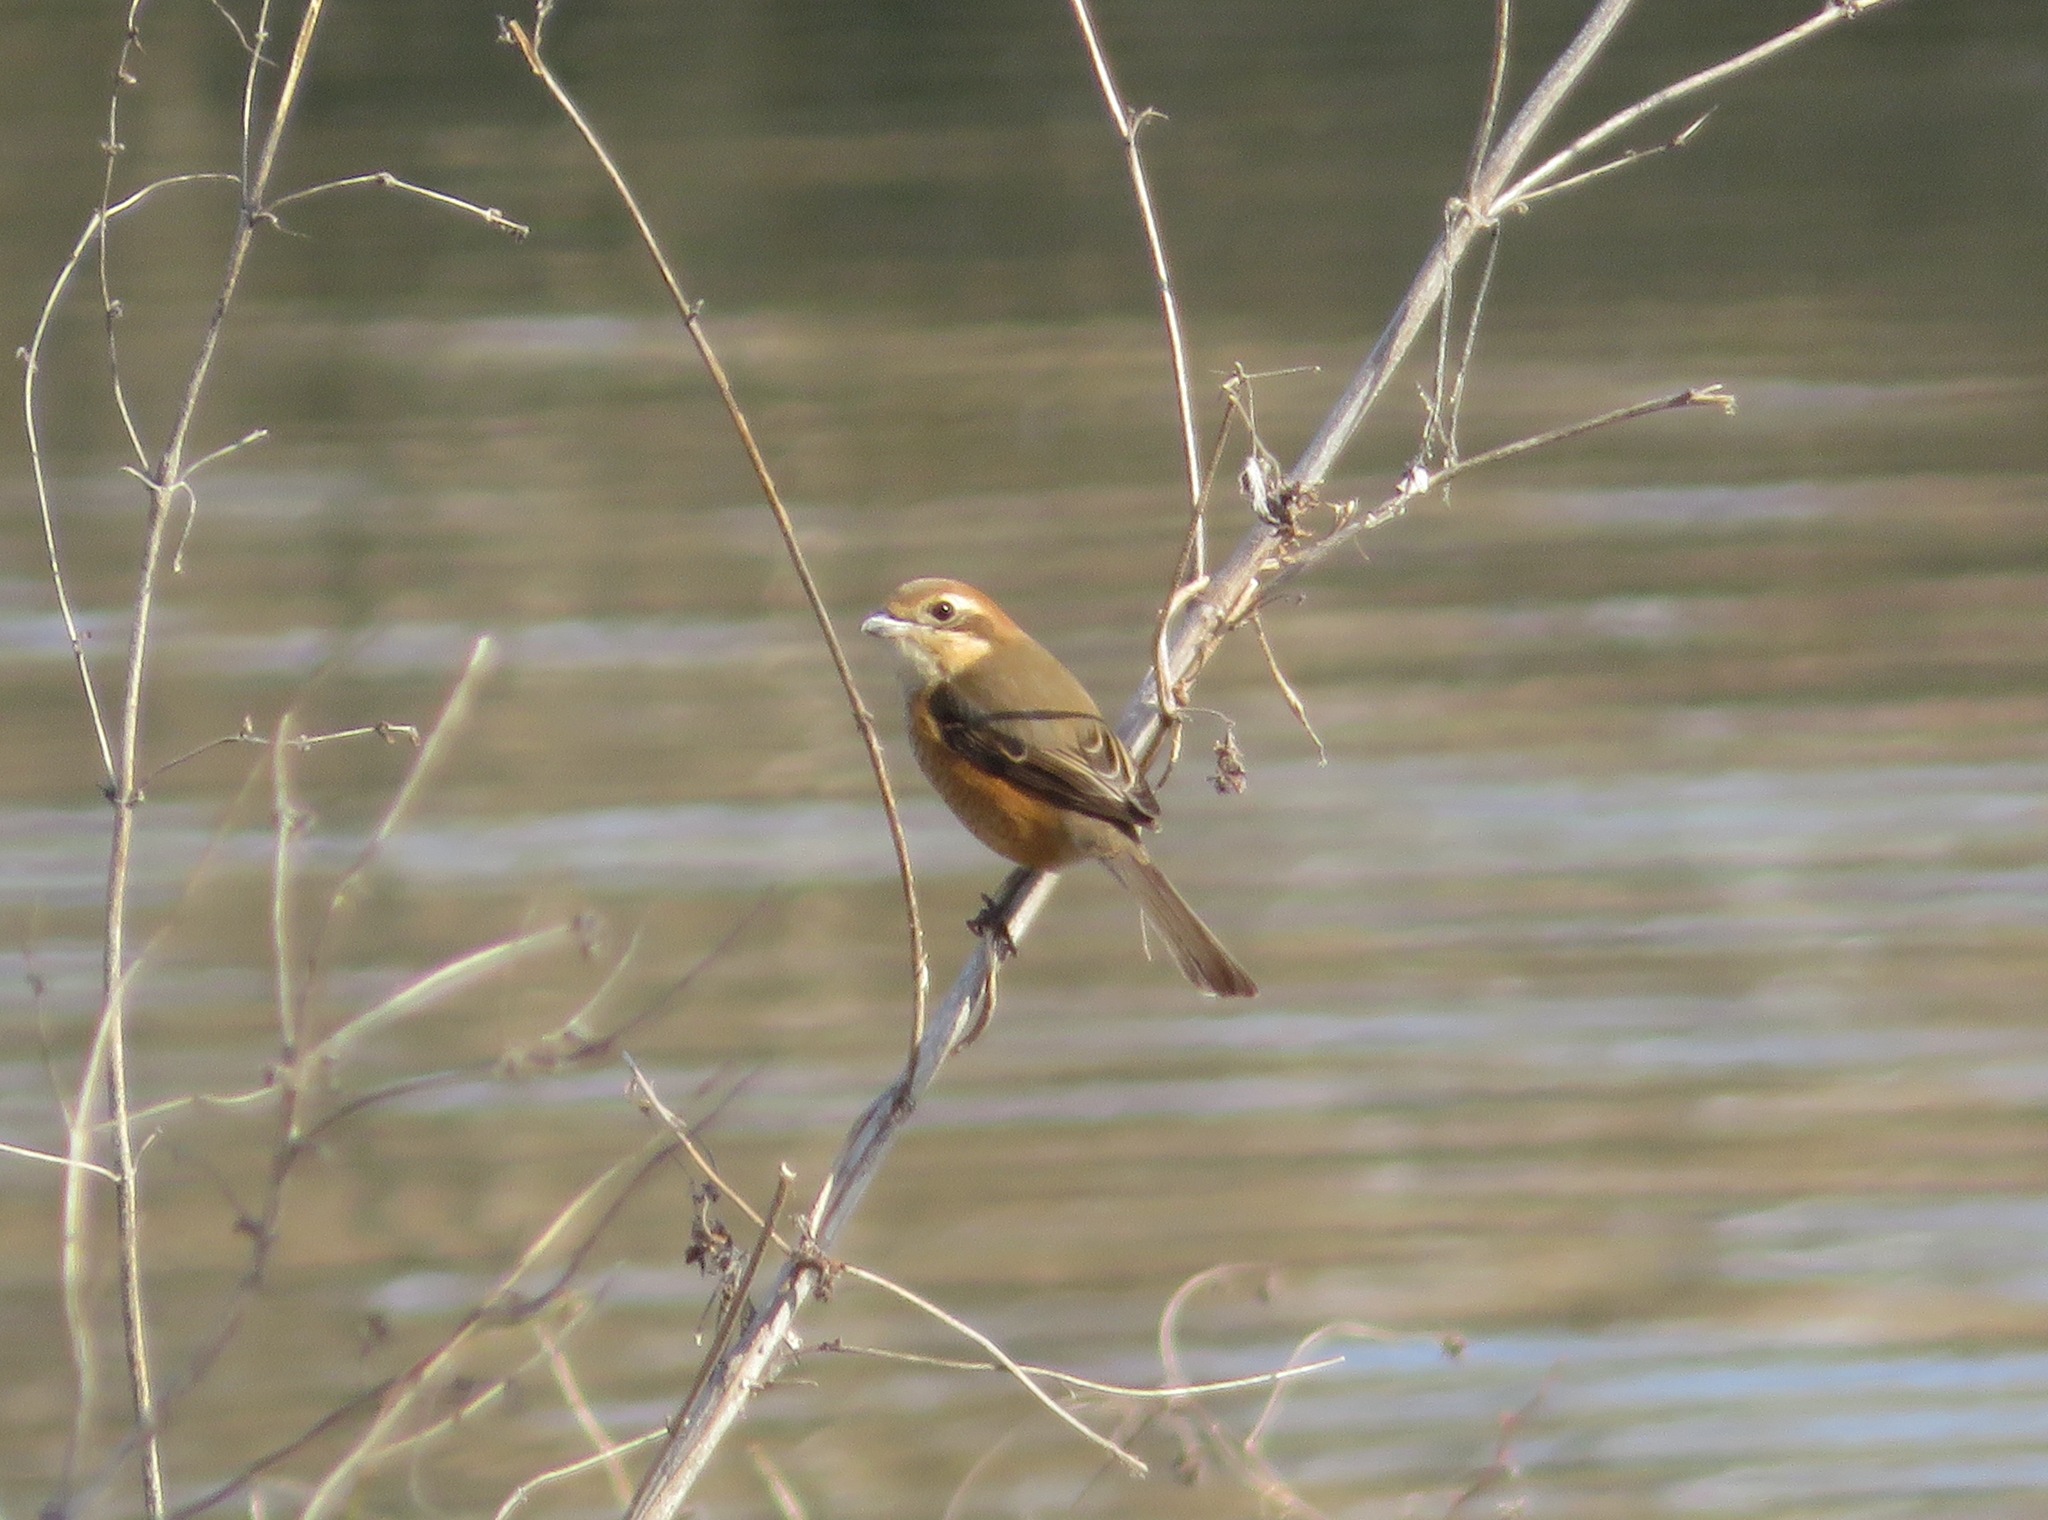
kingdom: Animalia
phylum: Chordata
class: Aves
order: Passeriformes
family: Laniidae
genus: Lanius
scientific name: Lanius bucephalus
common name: Bull-headed shrike
